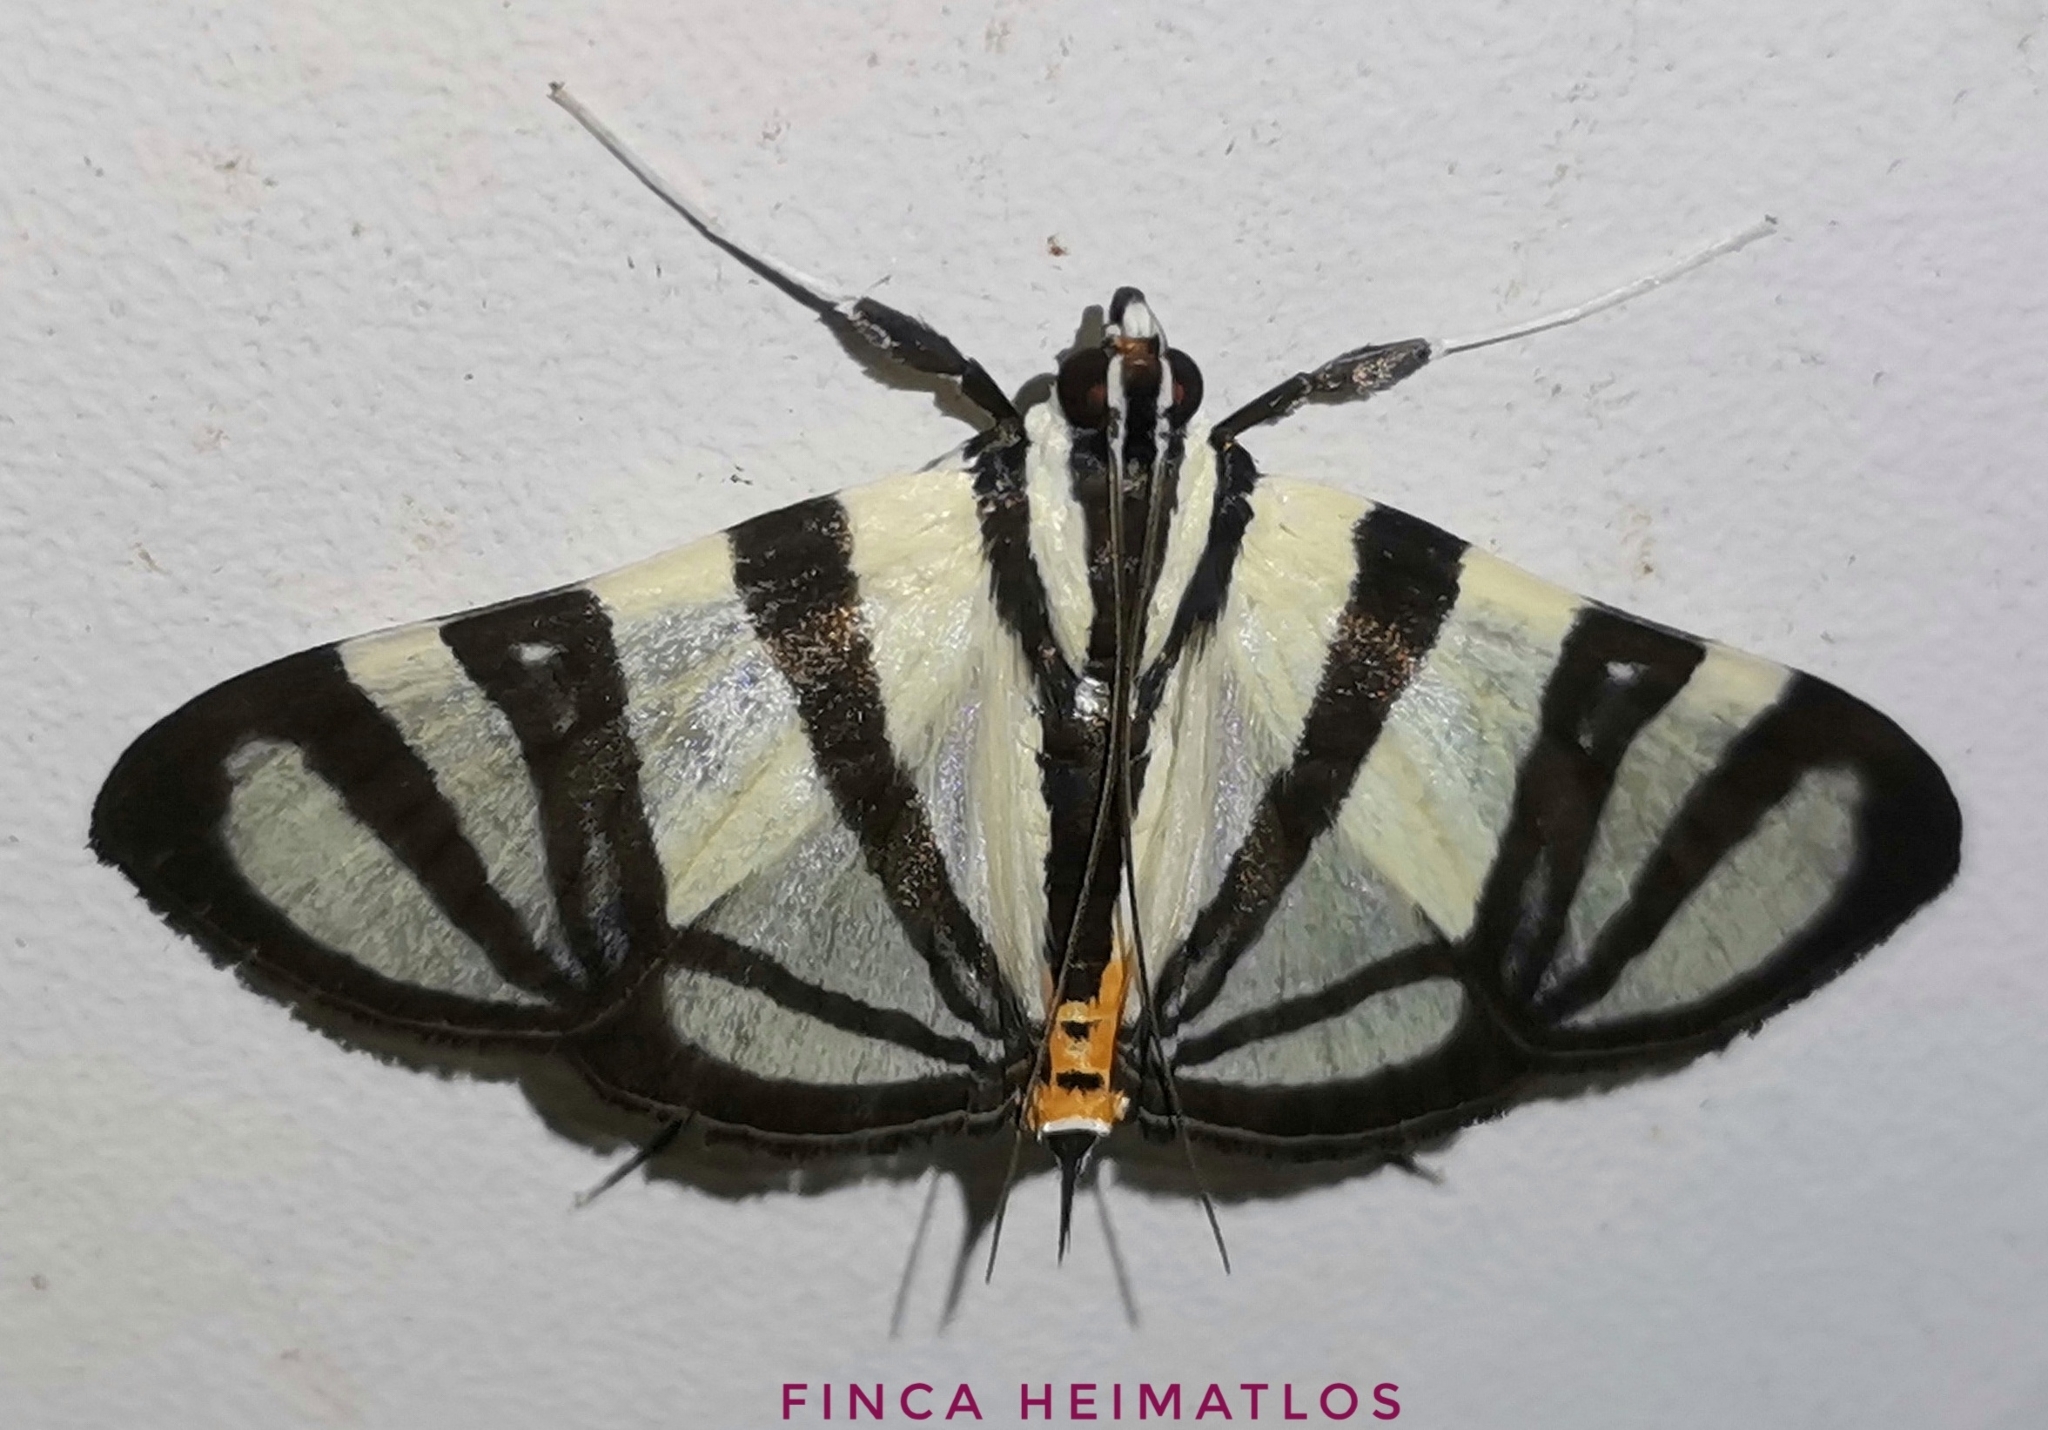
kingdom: Animalia
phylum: Arthropoda
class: Insecta
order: Lepidoptera
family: Crambidae
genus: Conchylodes
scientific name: Conchylodes nolckenialis
